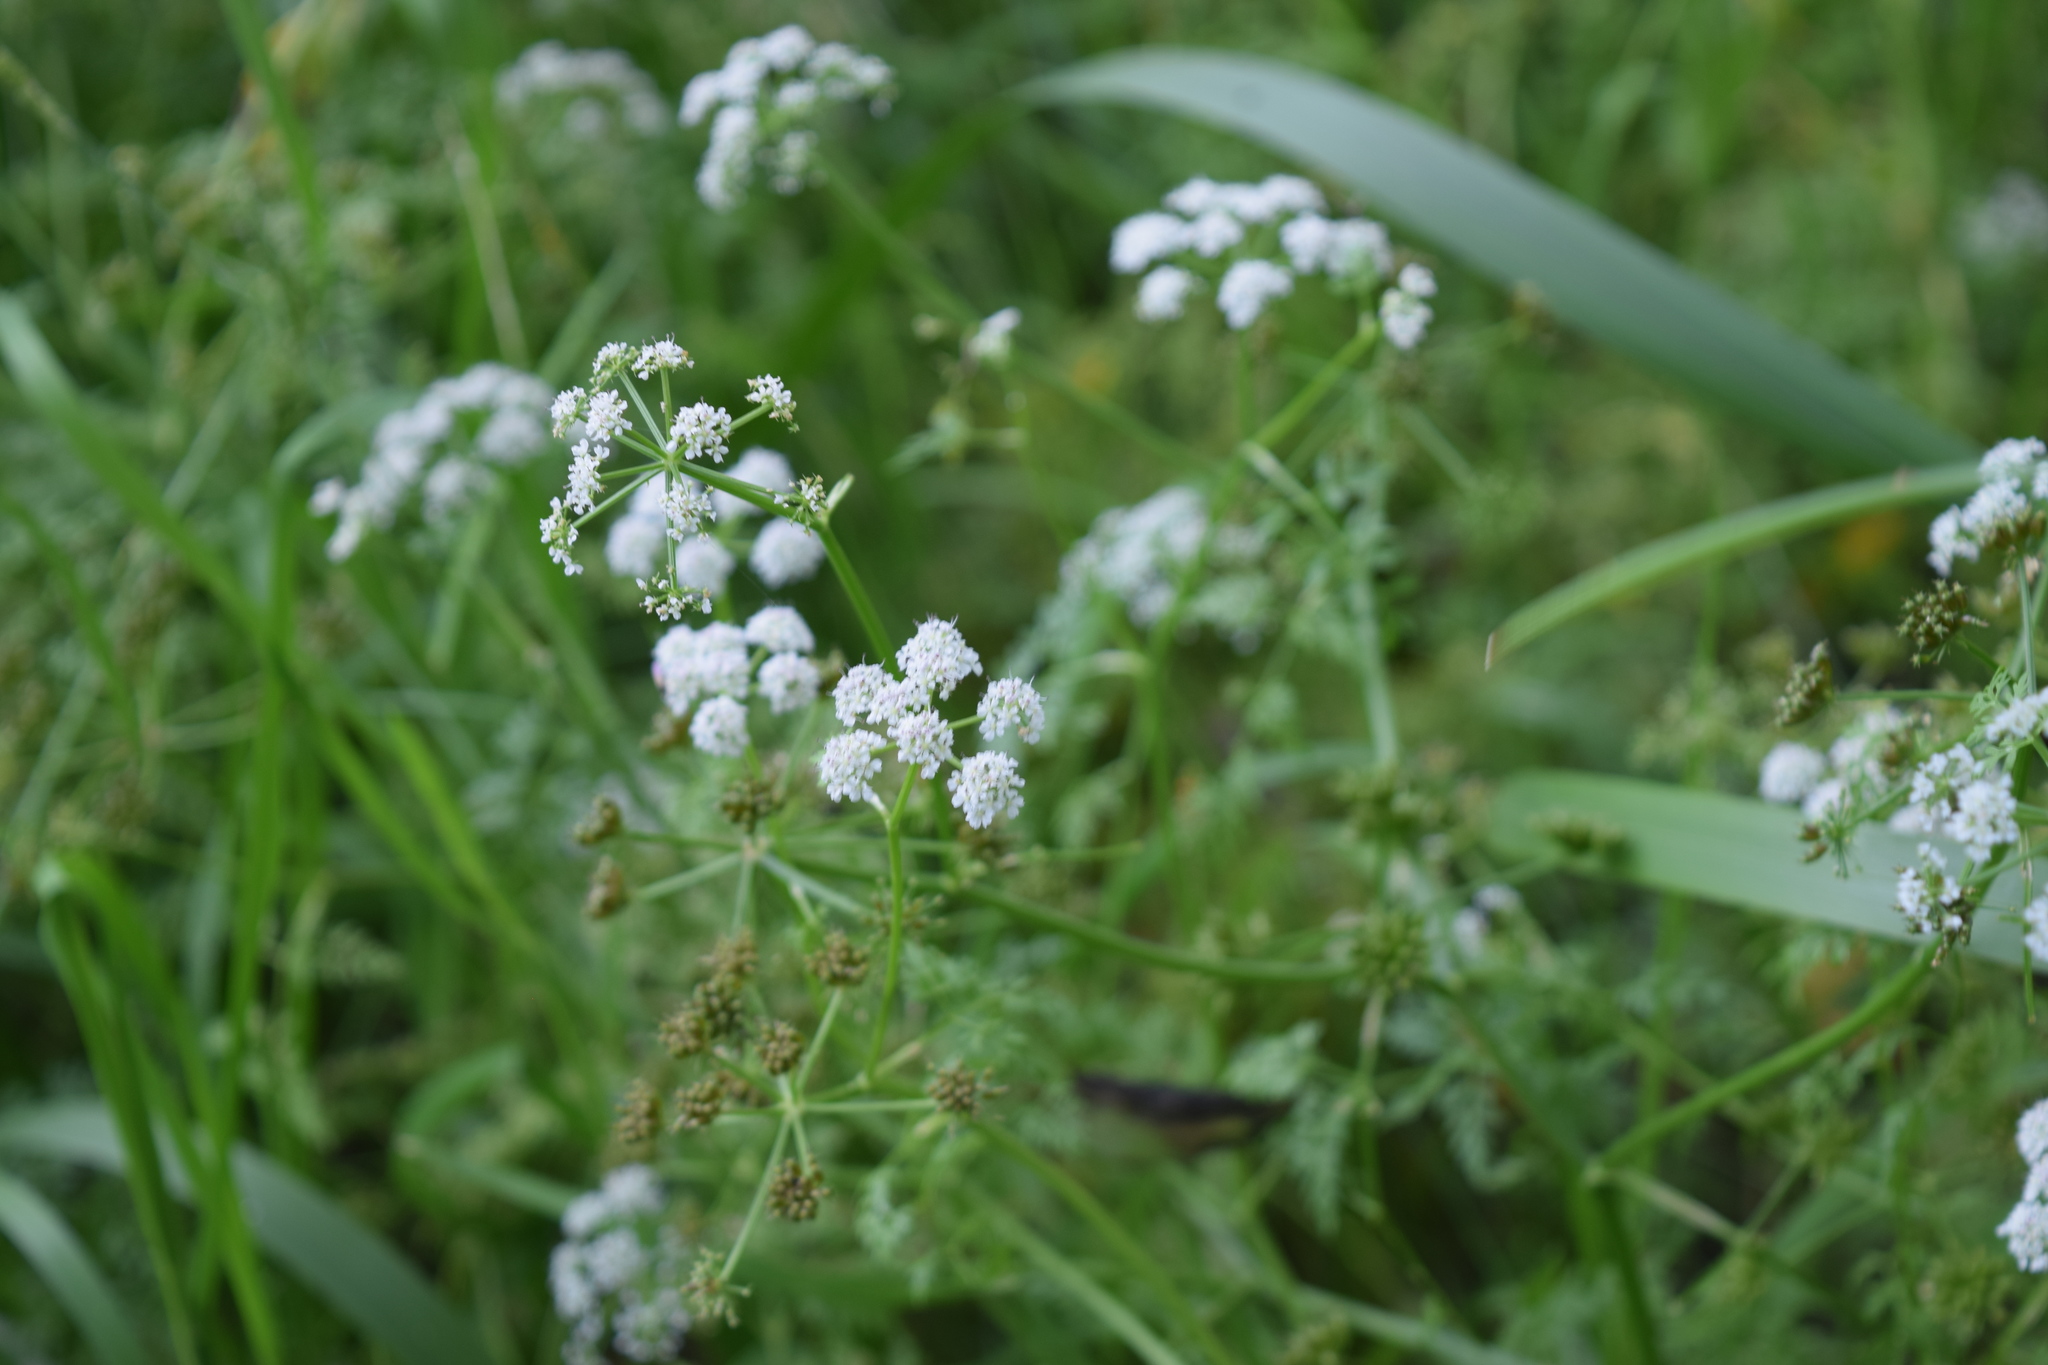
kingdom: Plantae
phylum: Tracheophyta
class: Magnoliopsida
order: Apiales
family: Apiaceae
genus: Oenanthe
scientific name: Oenanthe aquatica
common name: Fine-leaved water-dropwort
